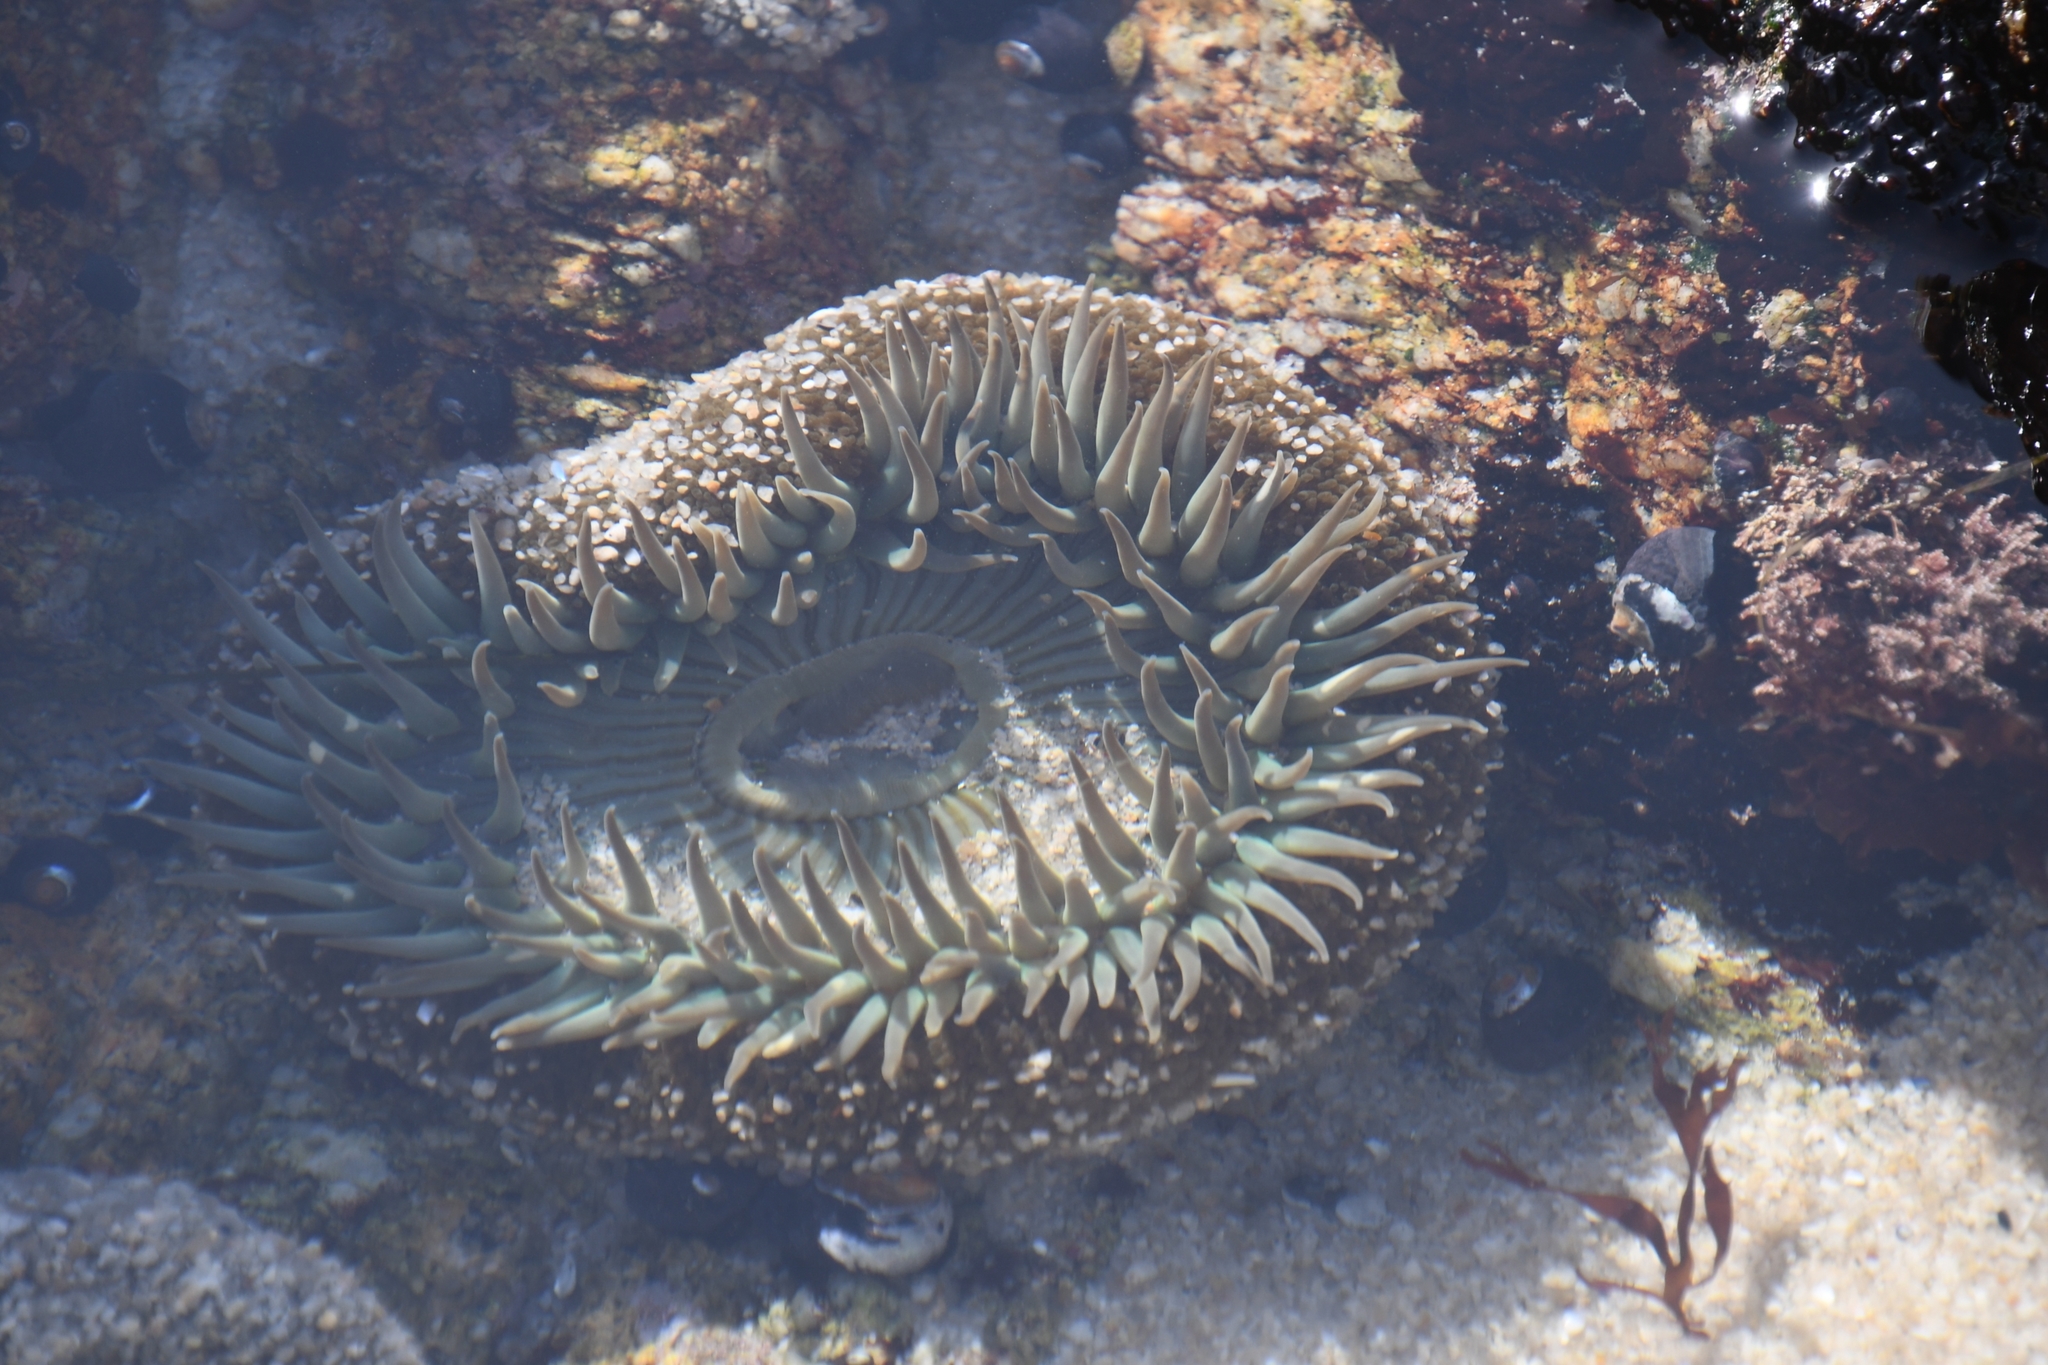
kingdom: Animalia
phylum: Cnidaria
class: Anthozoa
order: Actiniaria
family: Actiniidae
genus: Anthopleura
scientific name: Anthopleura sola
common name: Sun anemone
